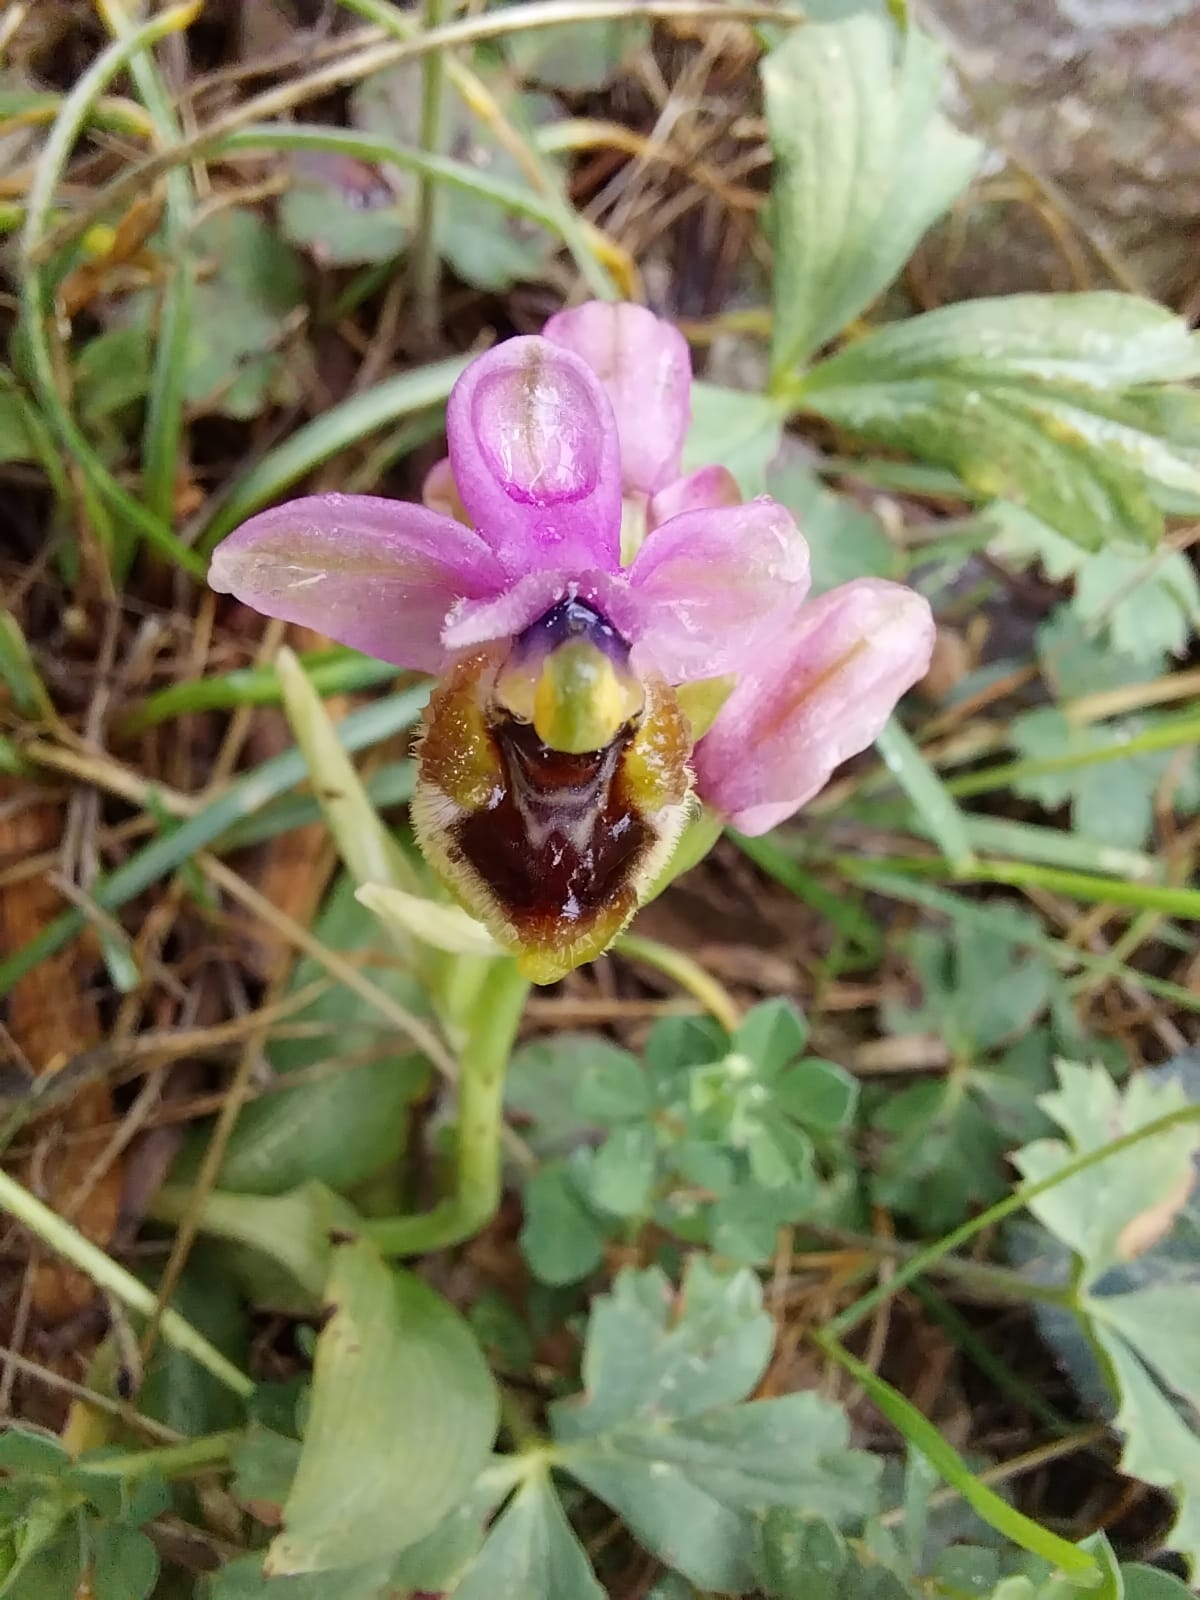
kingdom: Plantae
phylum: Tracheophyta
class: Liliopsida
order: Asparagales
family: Orchidaceae
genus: Ophrys
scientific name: Ophrys tenthredinifera
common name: Sawfly orchid
